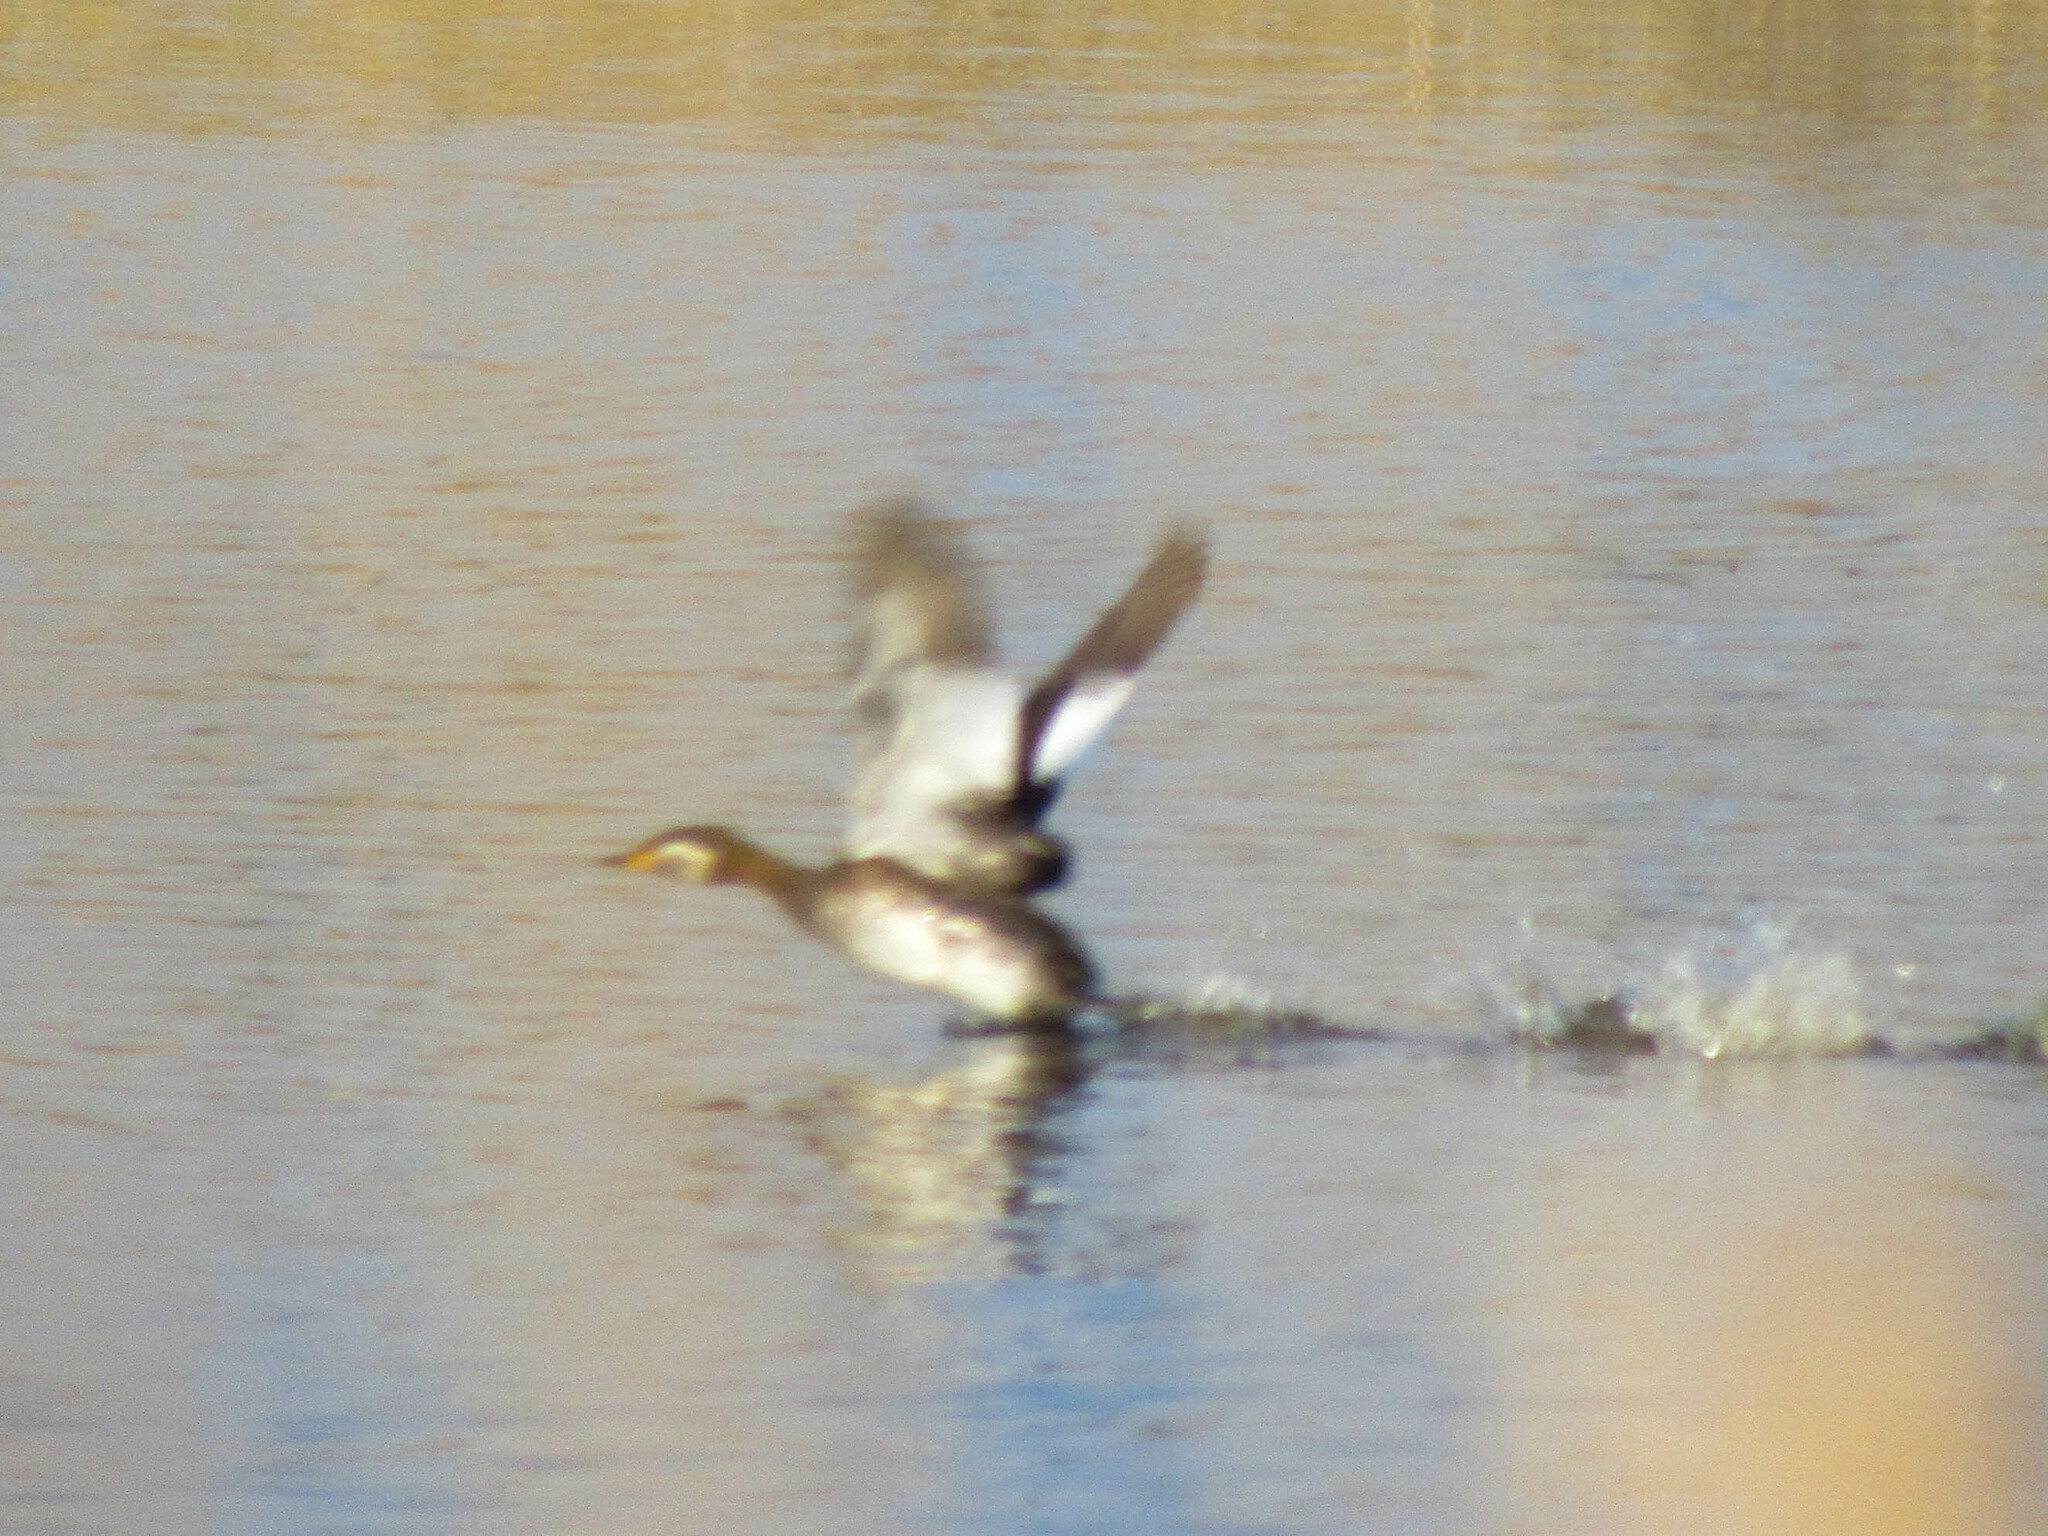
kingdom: Animalia
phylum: Chordata
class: Aves
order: Podicipediformes
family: Podicipedidae
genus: Podiceps
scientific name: Podiceps grisegena
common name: Red-necked grebe
